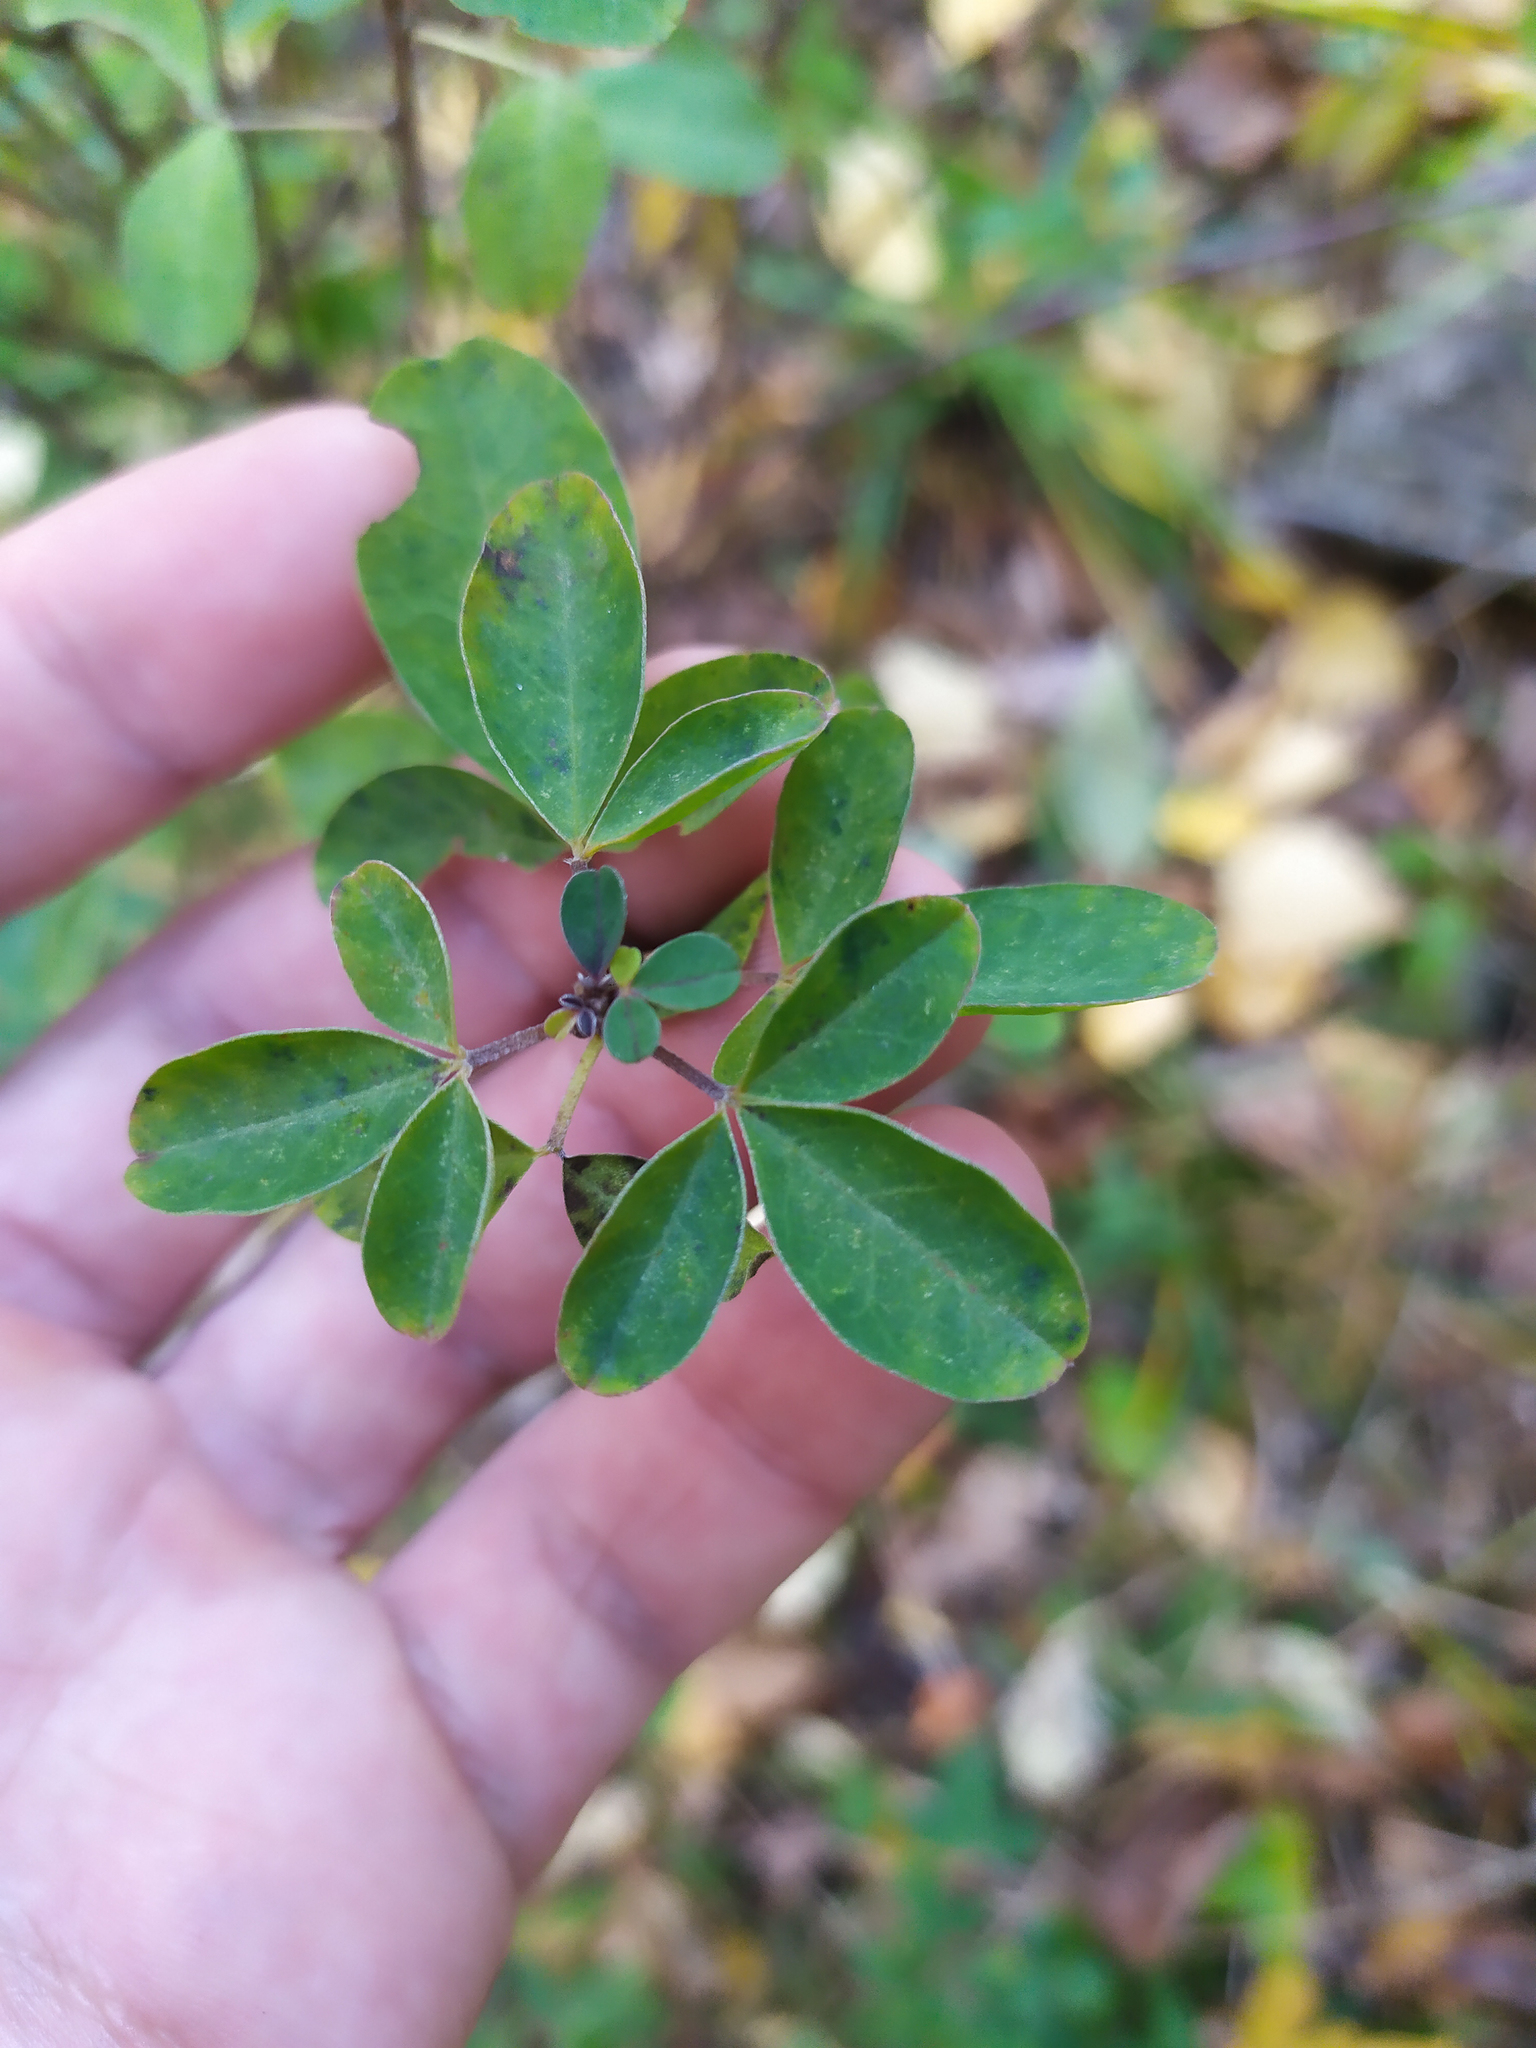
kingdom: Plantae
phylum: Tracheophyta
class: Magnoliopsida
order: Fabales
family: Fabaceae
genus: Chamaecytisus
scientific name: Chamaecytisus ruthenicus
